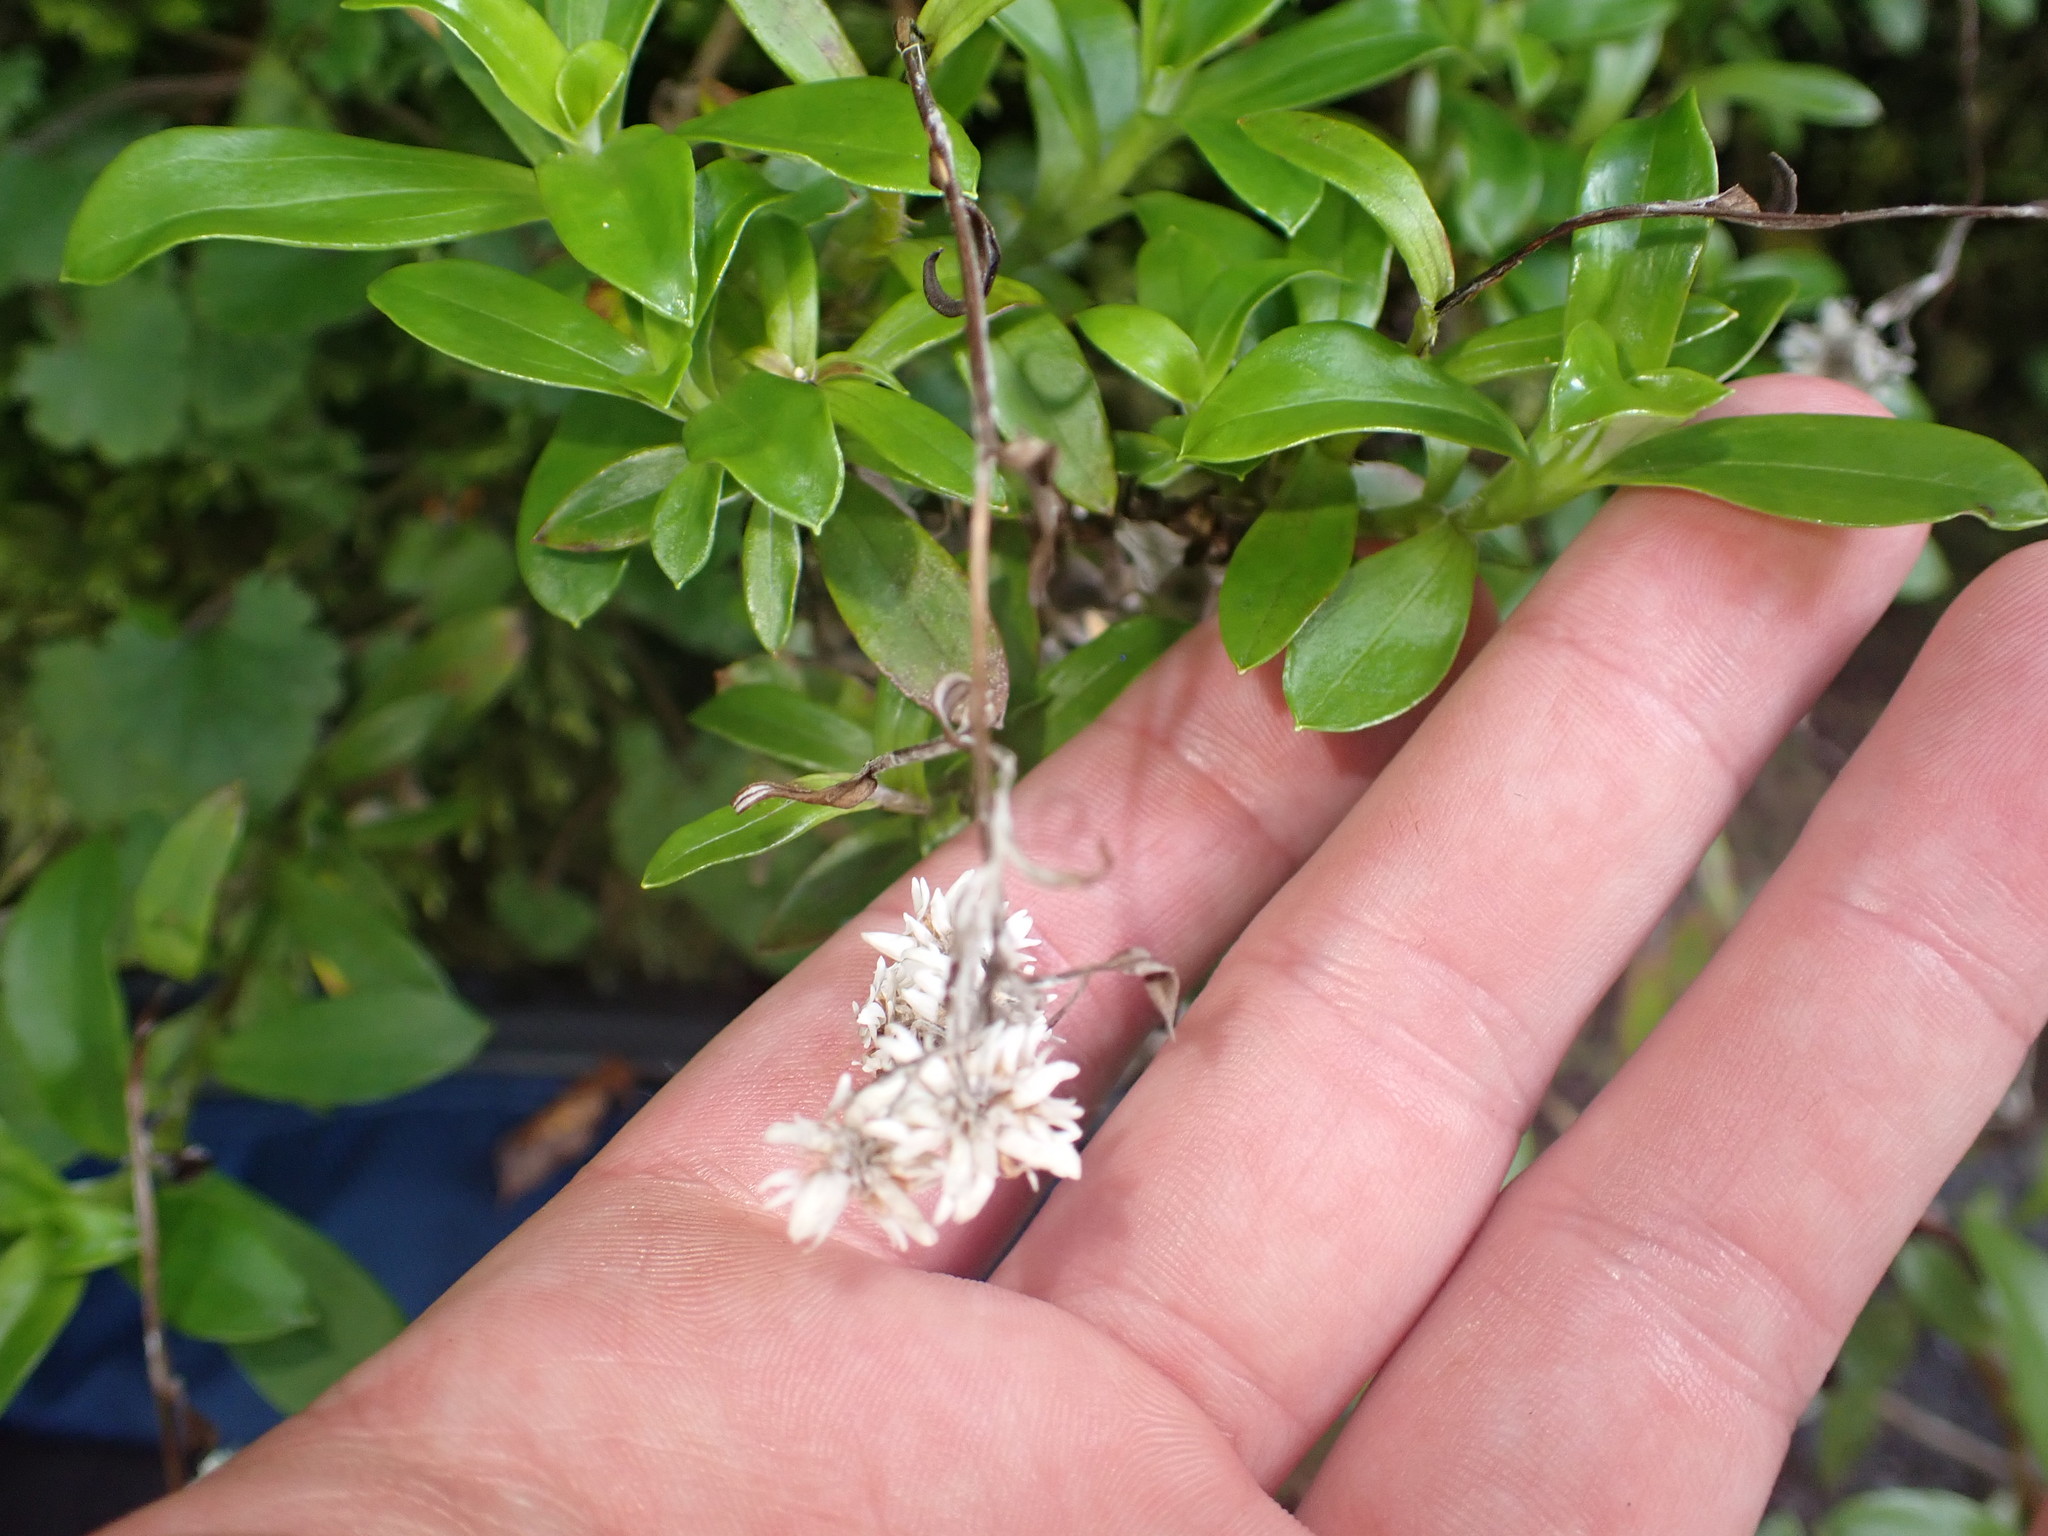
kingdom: Plantae
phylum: Tracheophyta
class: Magnoliopsida
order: Asterales
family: Asteraceae
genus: Anaphalioides
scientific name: Anaphalioides trinervis
